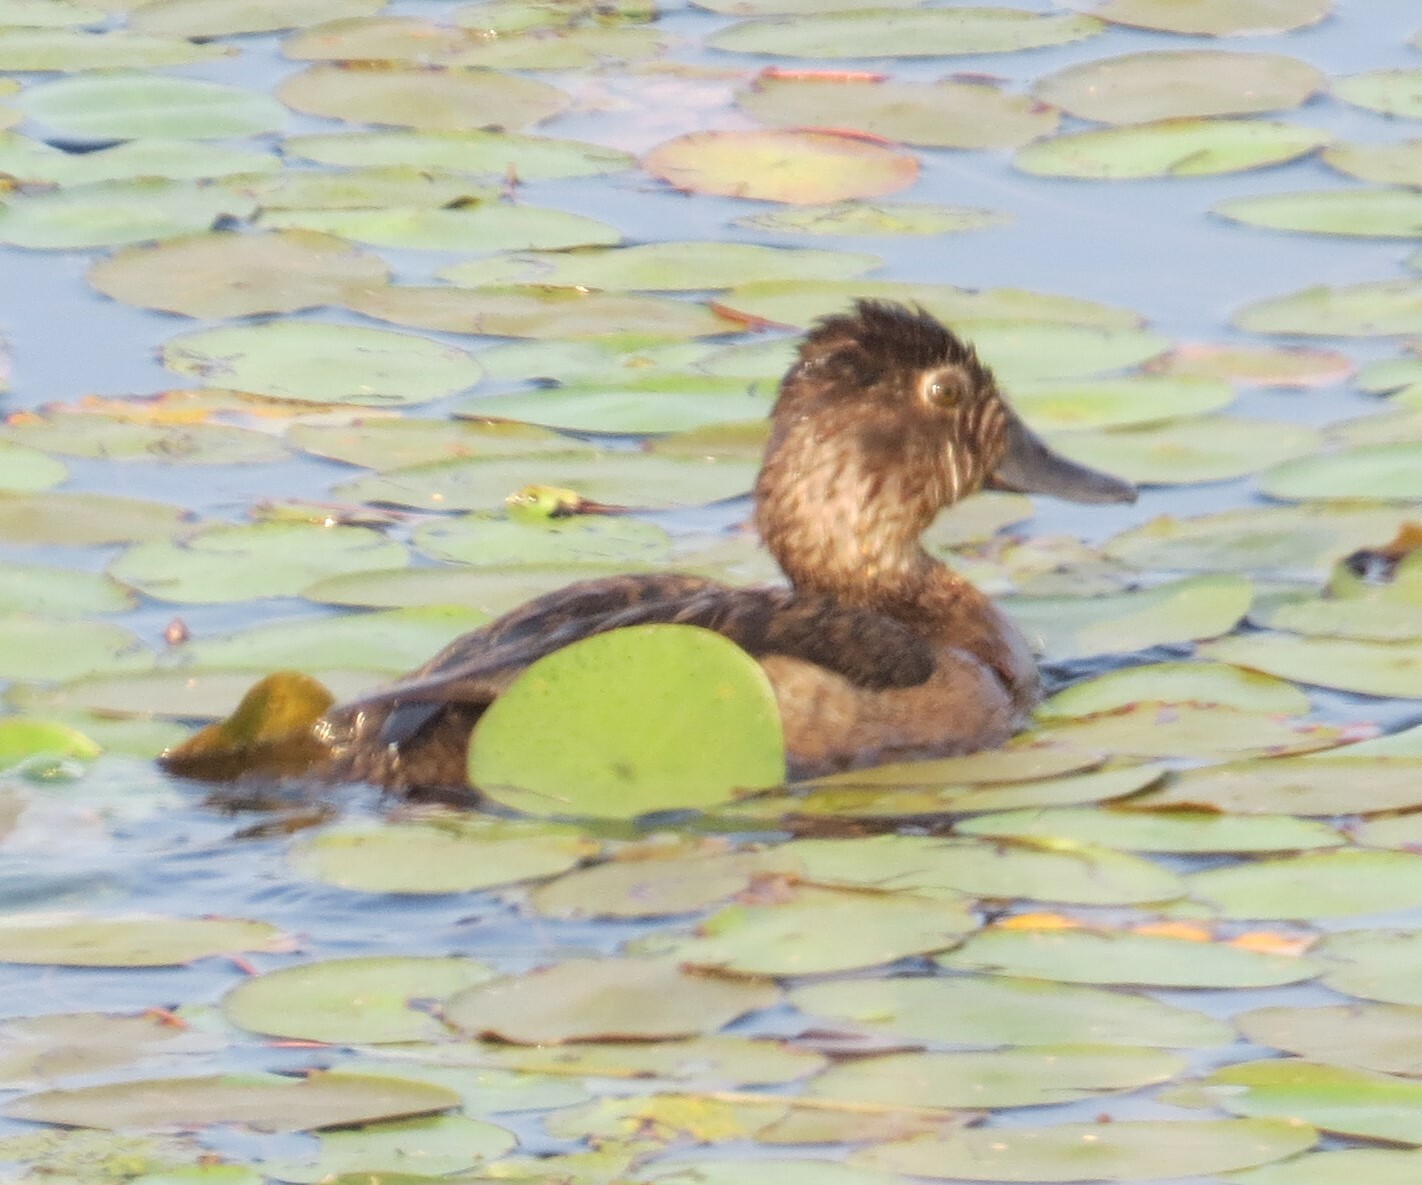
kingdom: Animalia
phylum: Chordata
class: Aves
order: Anseriformes
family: Anatidae
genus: Aythya
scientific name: Aythya collaris
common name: Ring-necked duck
